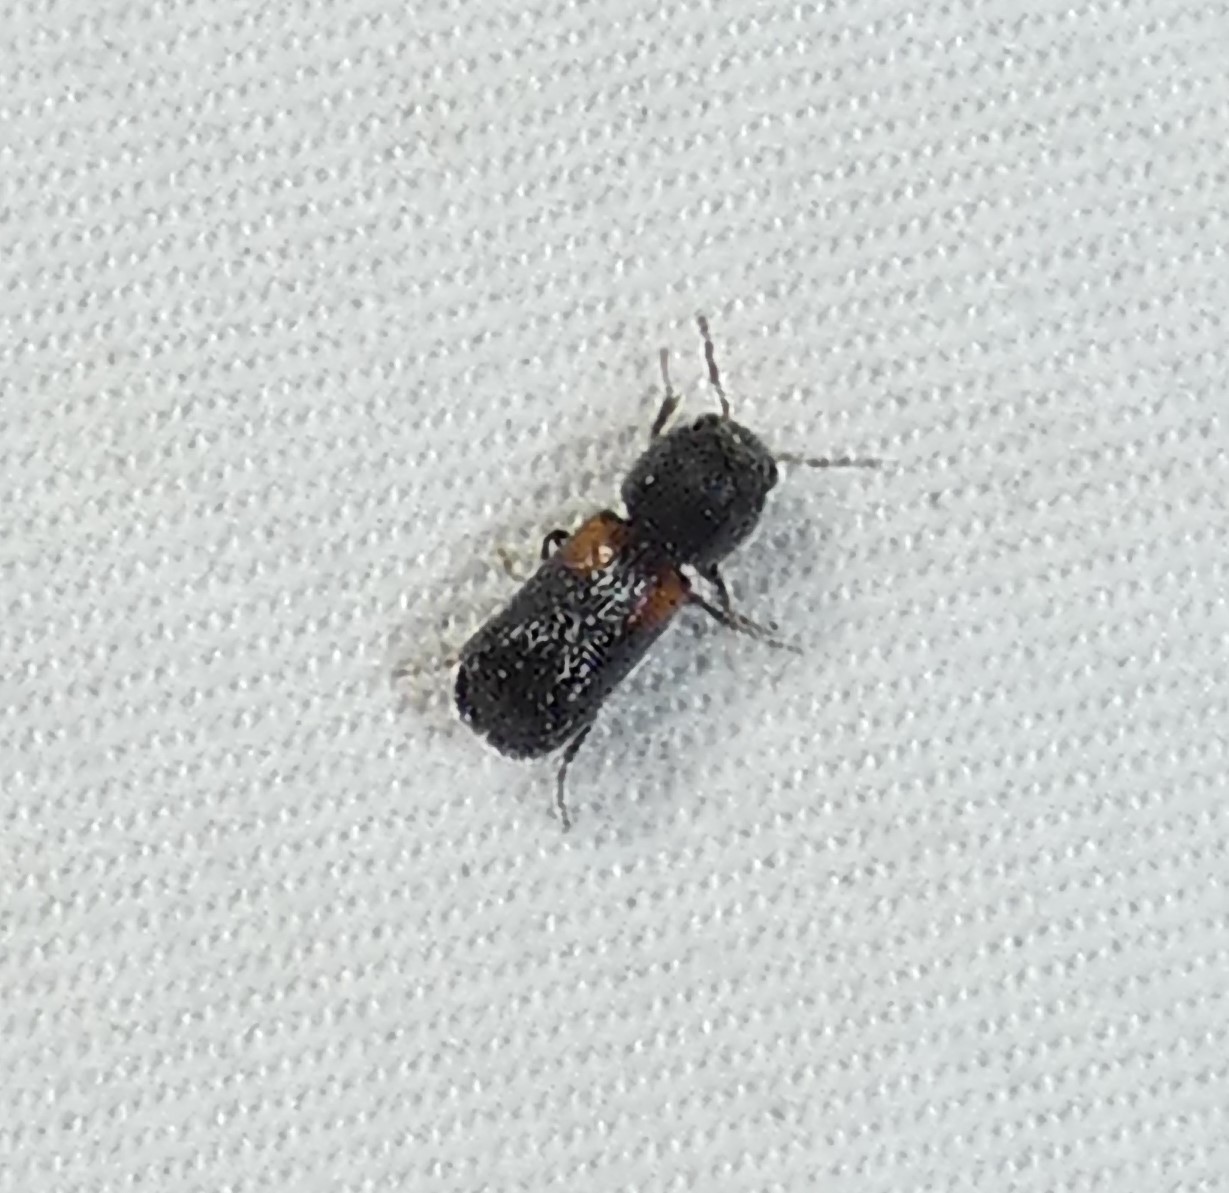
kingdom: Animalia
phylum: Arthropoda
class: Insecta
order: Coleoptera
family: Bostrichidae
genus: Xylobiops
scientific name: Xylobiops basilaris
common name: Red-shouldered bostrichid
